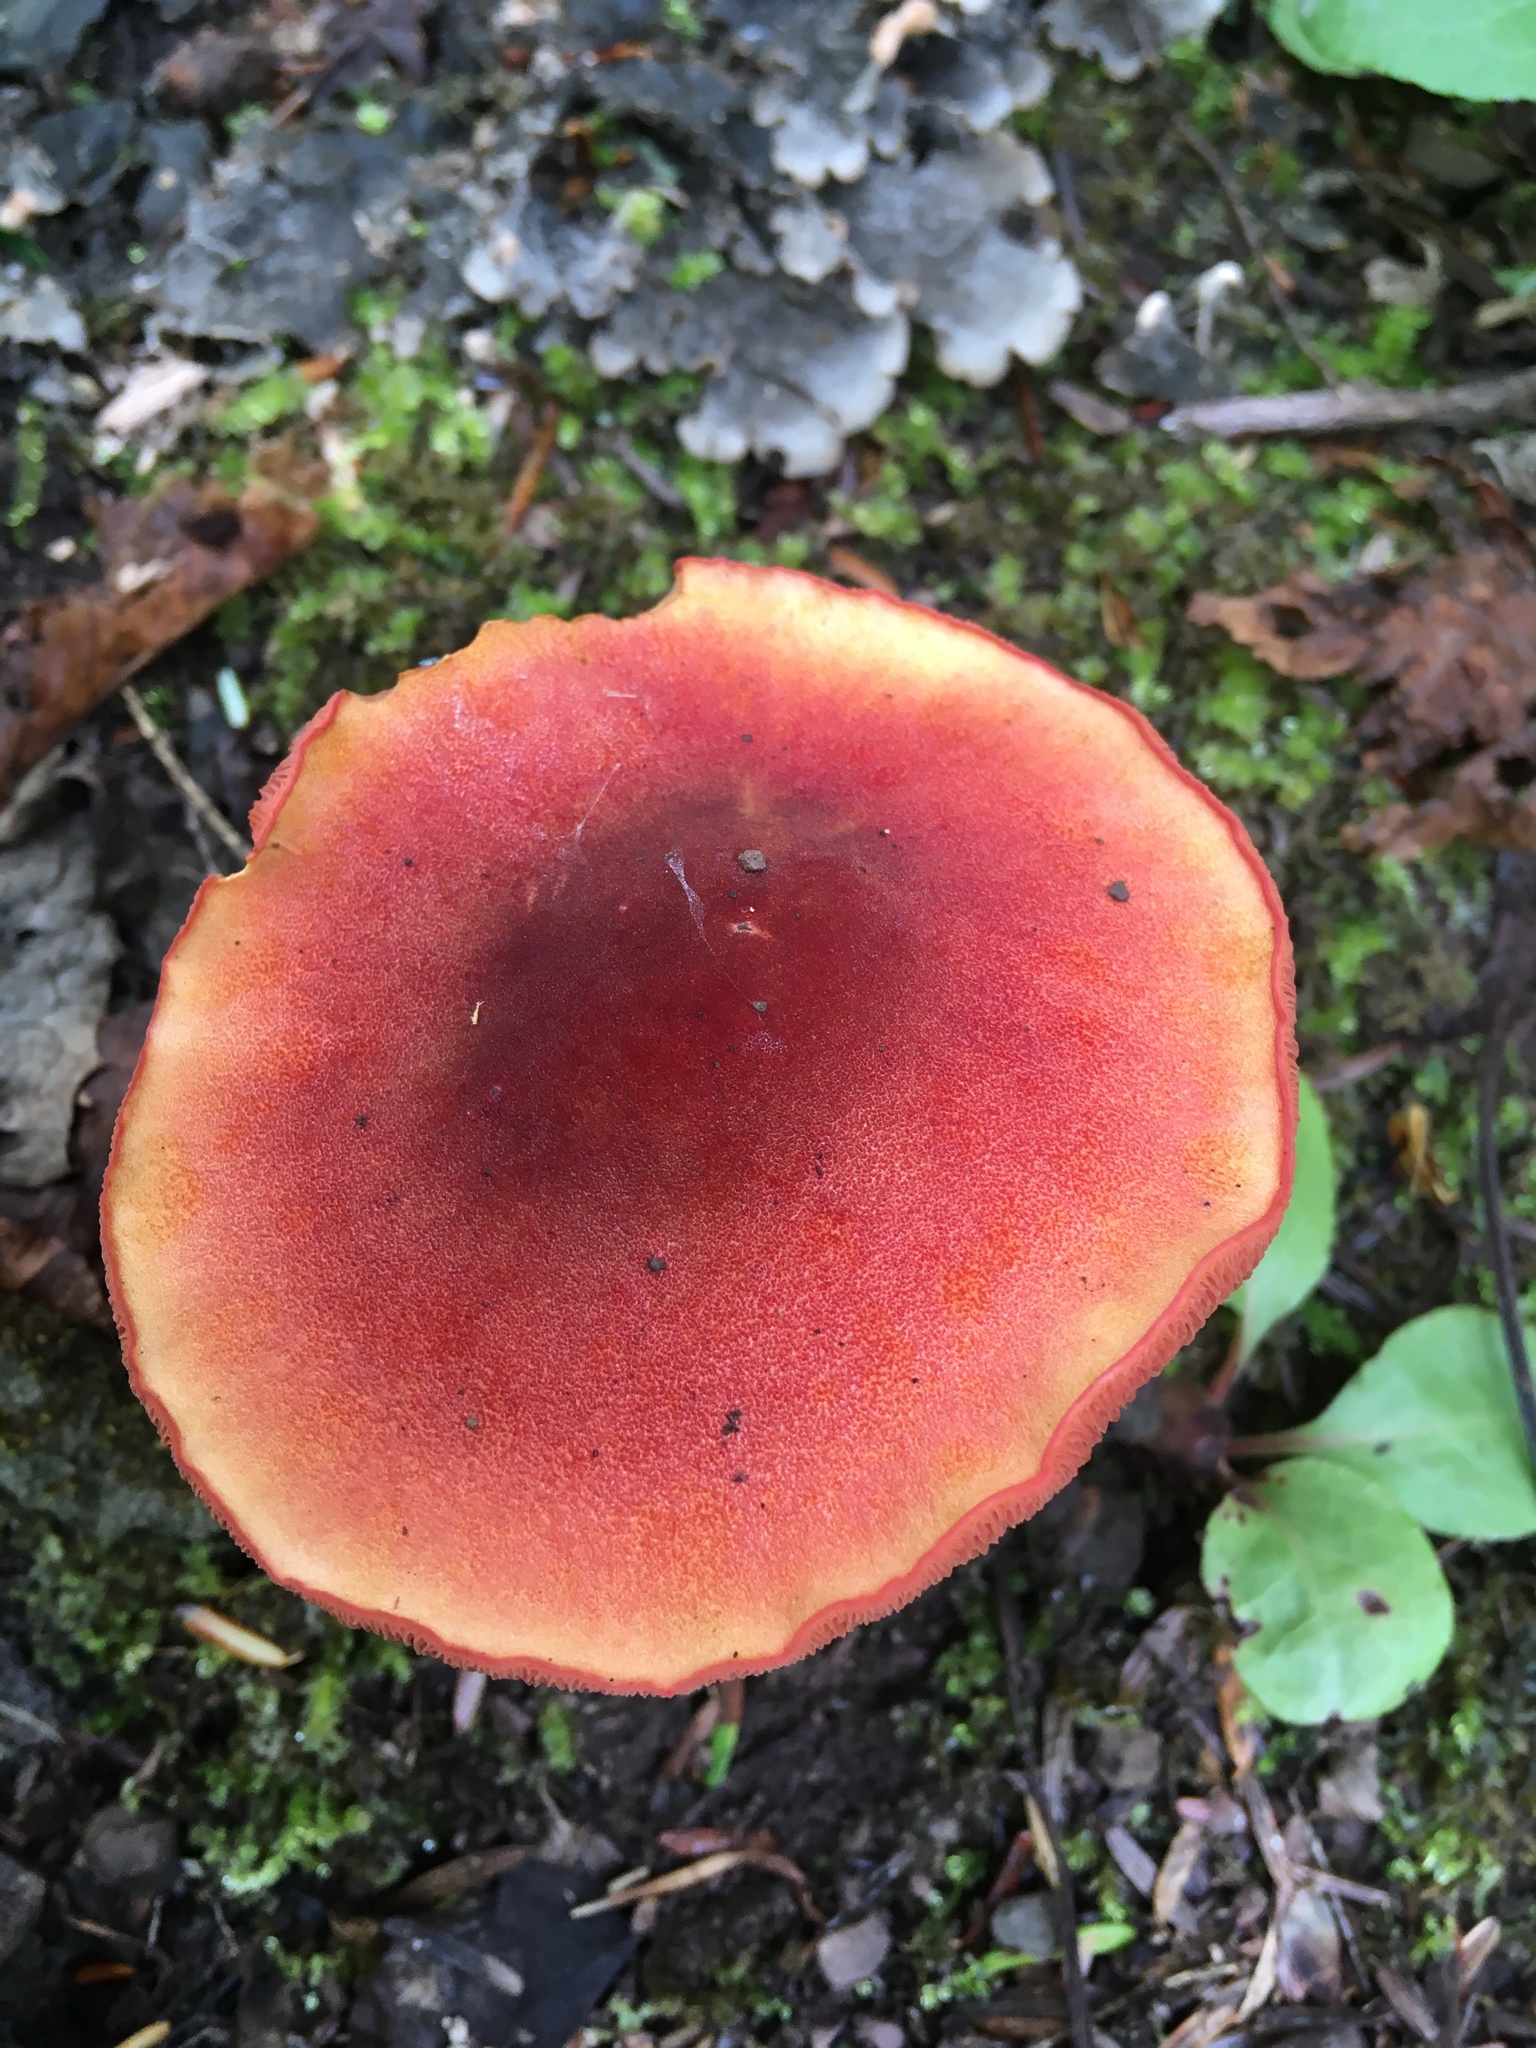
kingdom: Fungi
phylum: Basidiomycota
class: Agaricomycetes
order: Boletales
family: Boletaceae
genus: Chalciporus
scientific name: Chalciporus rubinellus
